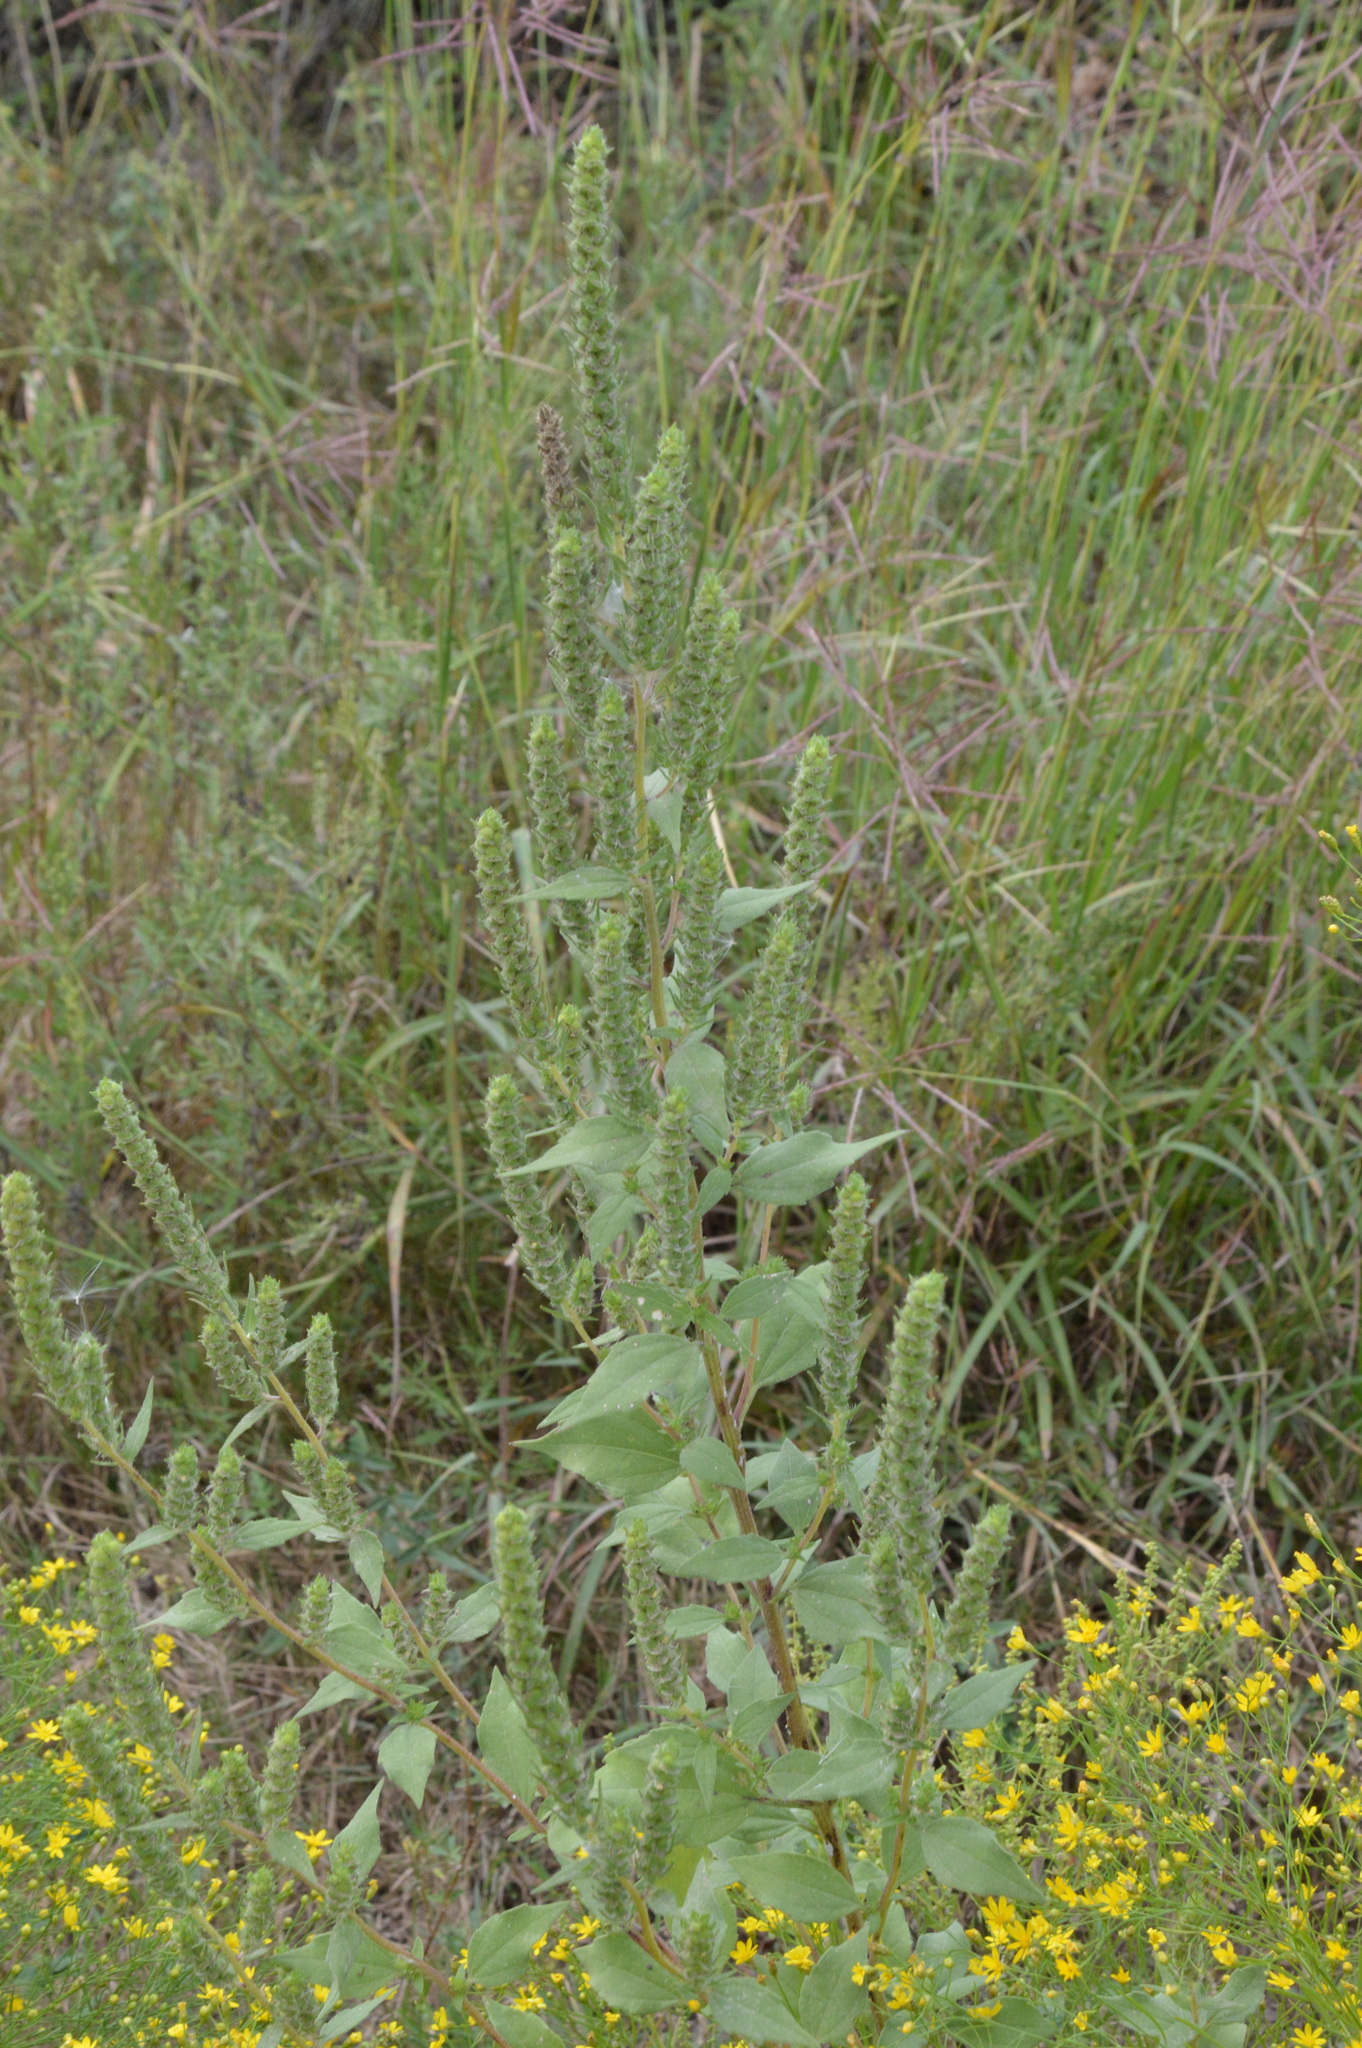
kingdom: Plantae
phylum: Tracheophyta
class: Magnoliopsida
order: Asterales
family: Asteraceae
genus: Iva
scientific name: Iva annua
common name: Marsh-elder
